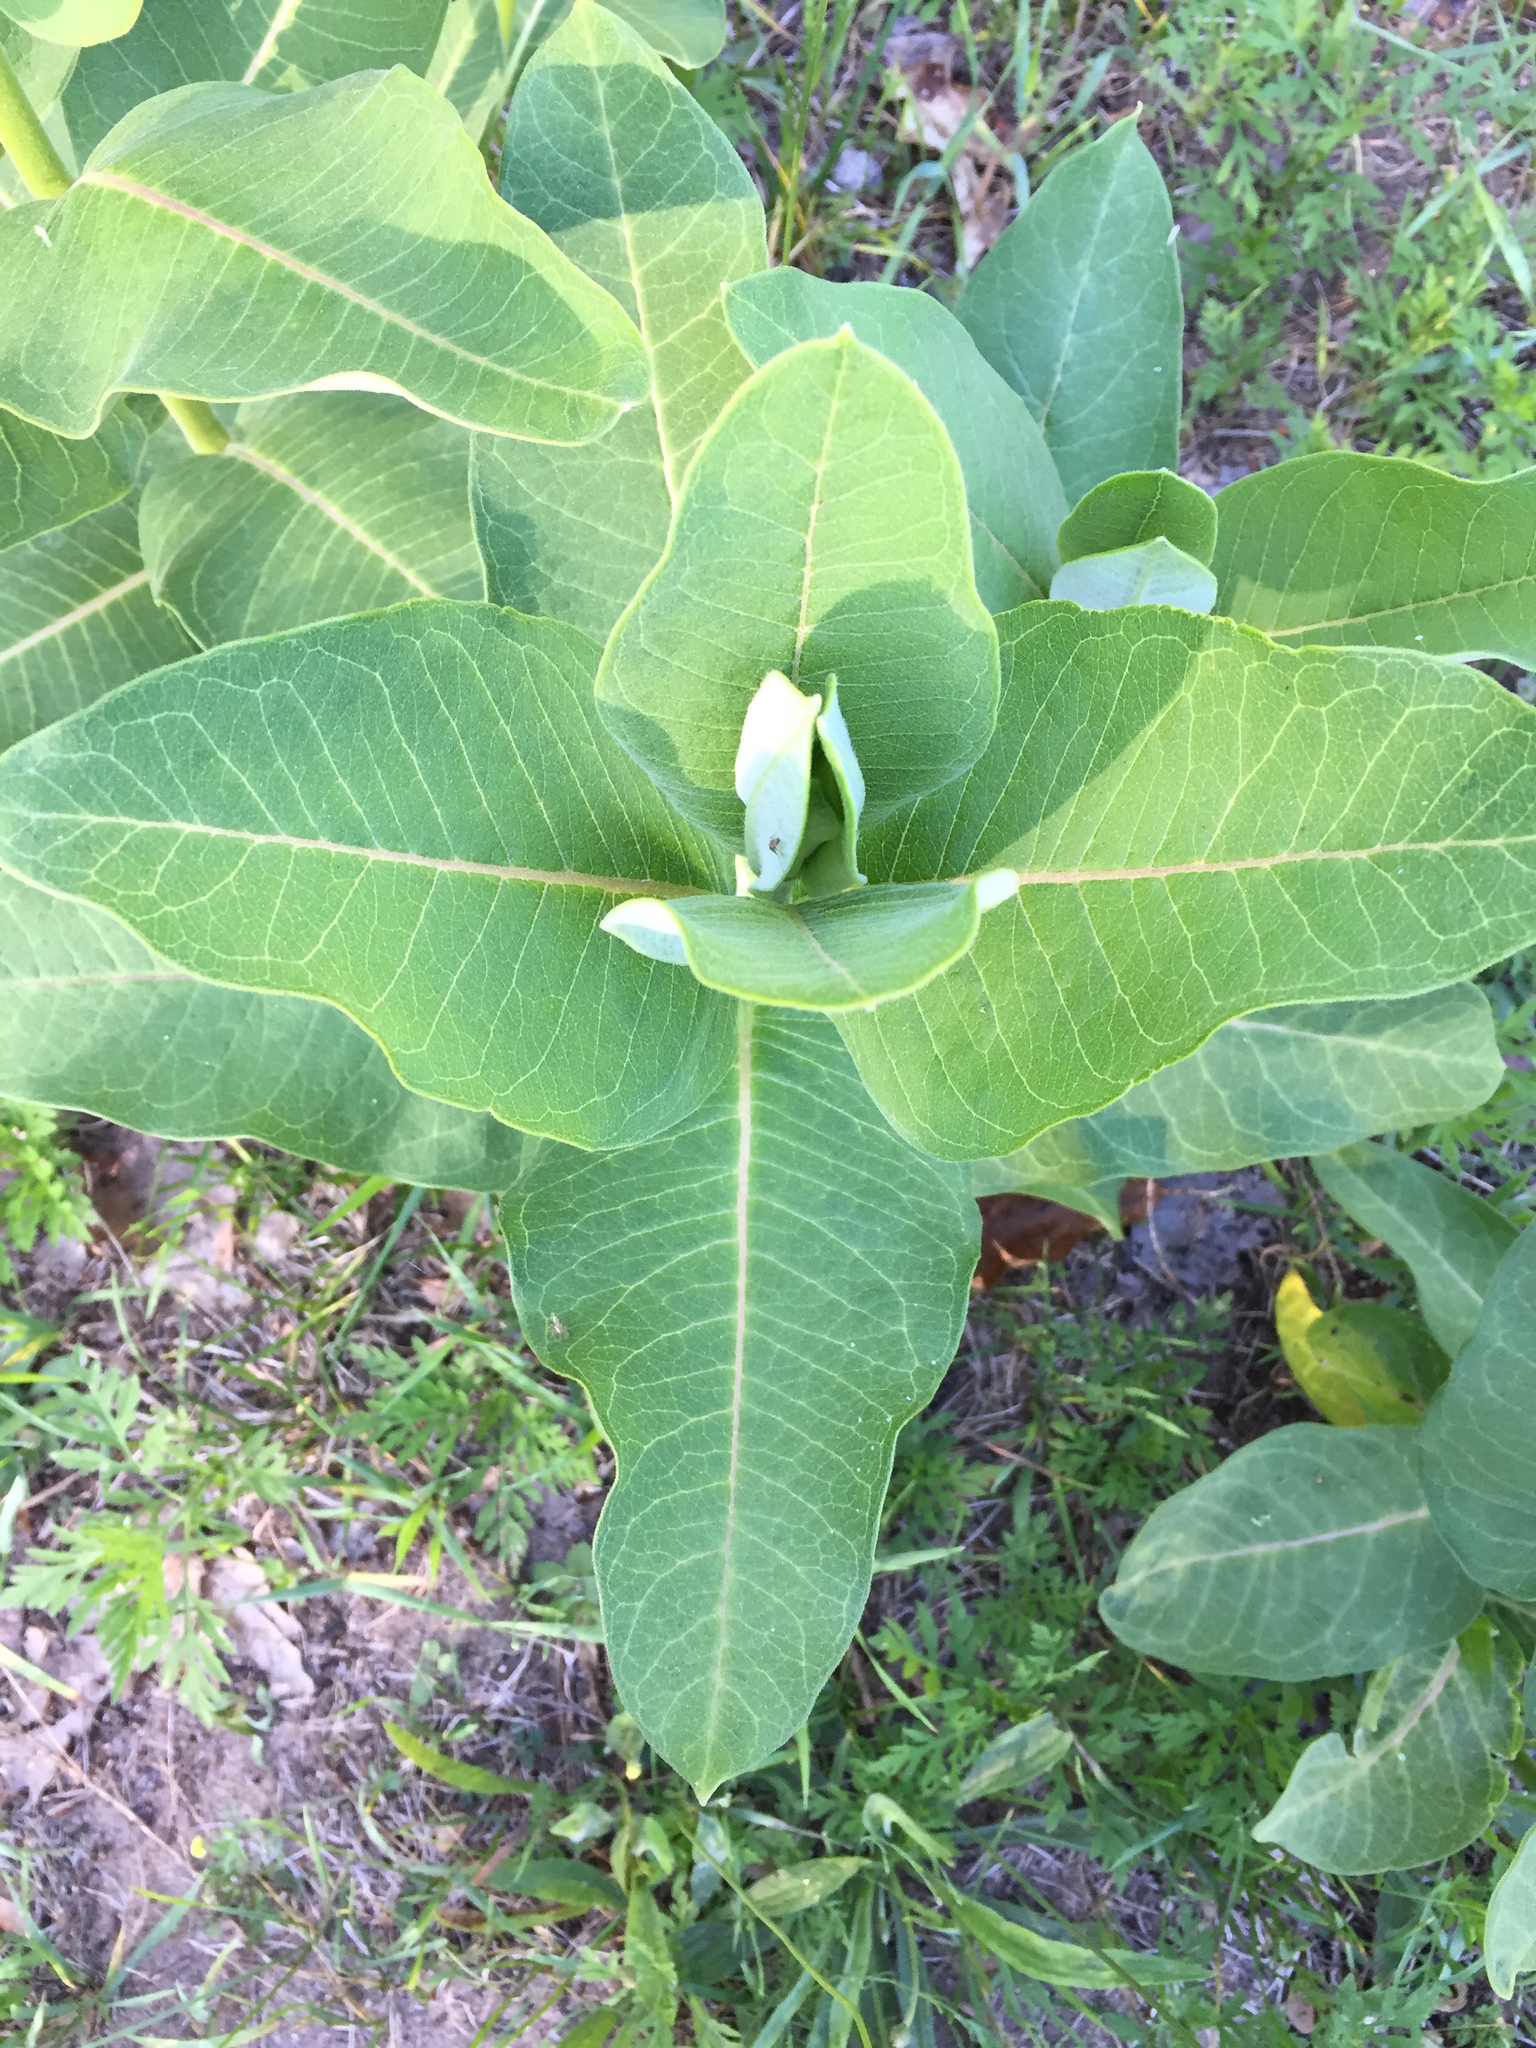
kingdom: Plantae
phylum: Tracheophyta
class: Magnoliopsida
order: Gentianales
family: Apocynaceae
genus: Asclepias
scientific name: Asclepias syriaca
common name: Common milkweed
